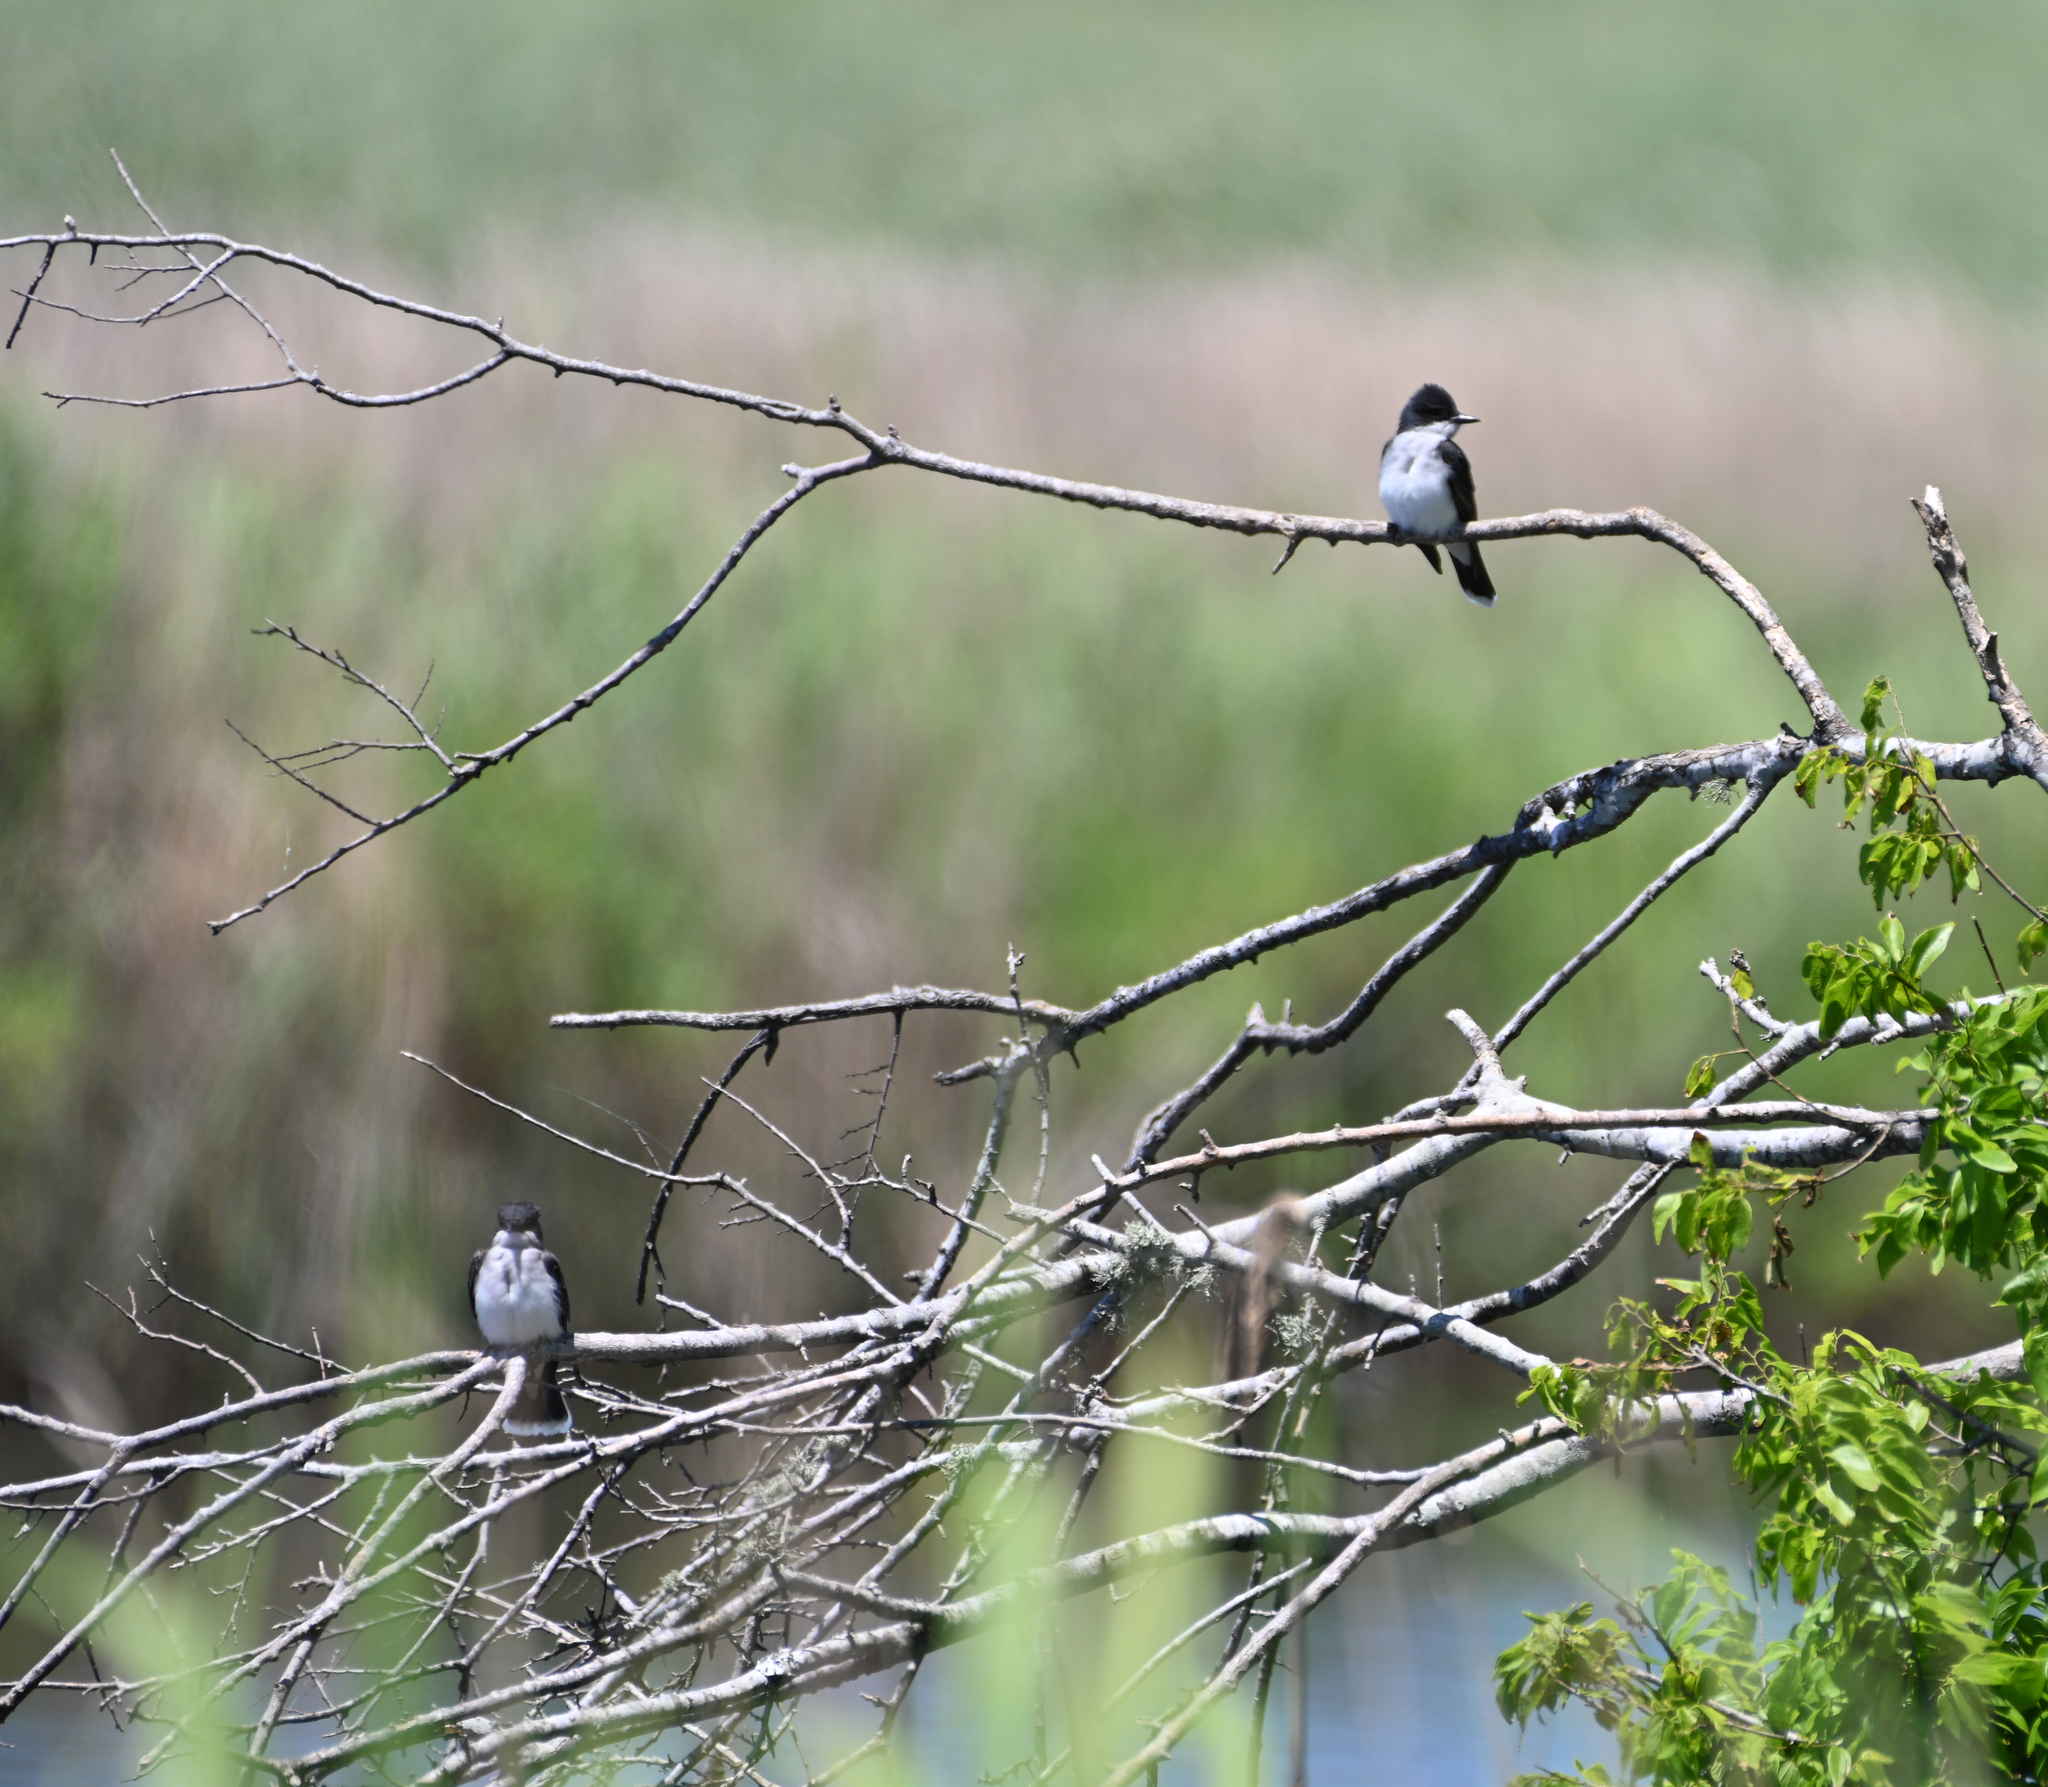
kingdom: Animalia
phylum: Chordata
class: Aves
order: Passeriformes
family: Tyrannidae
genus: Tyrannus
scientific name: Tyrannus tyrannus
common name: Eastern kingbird
